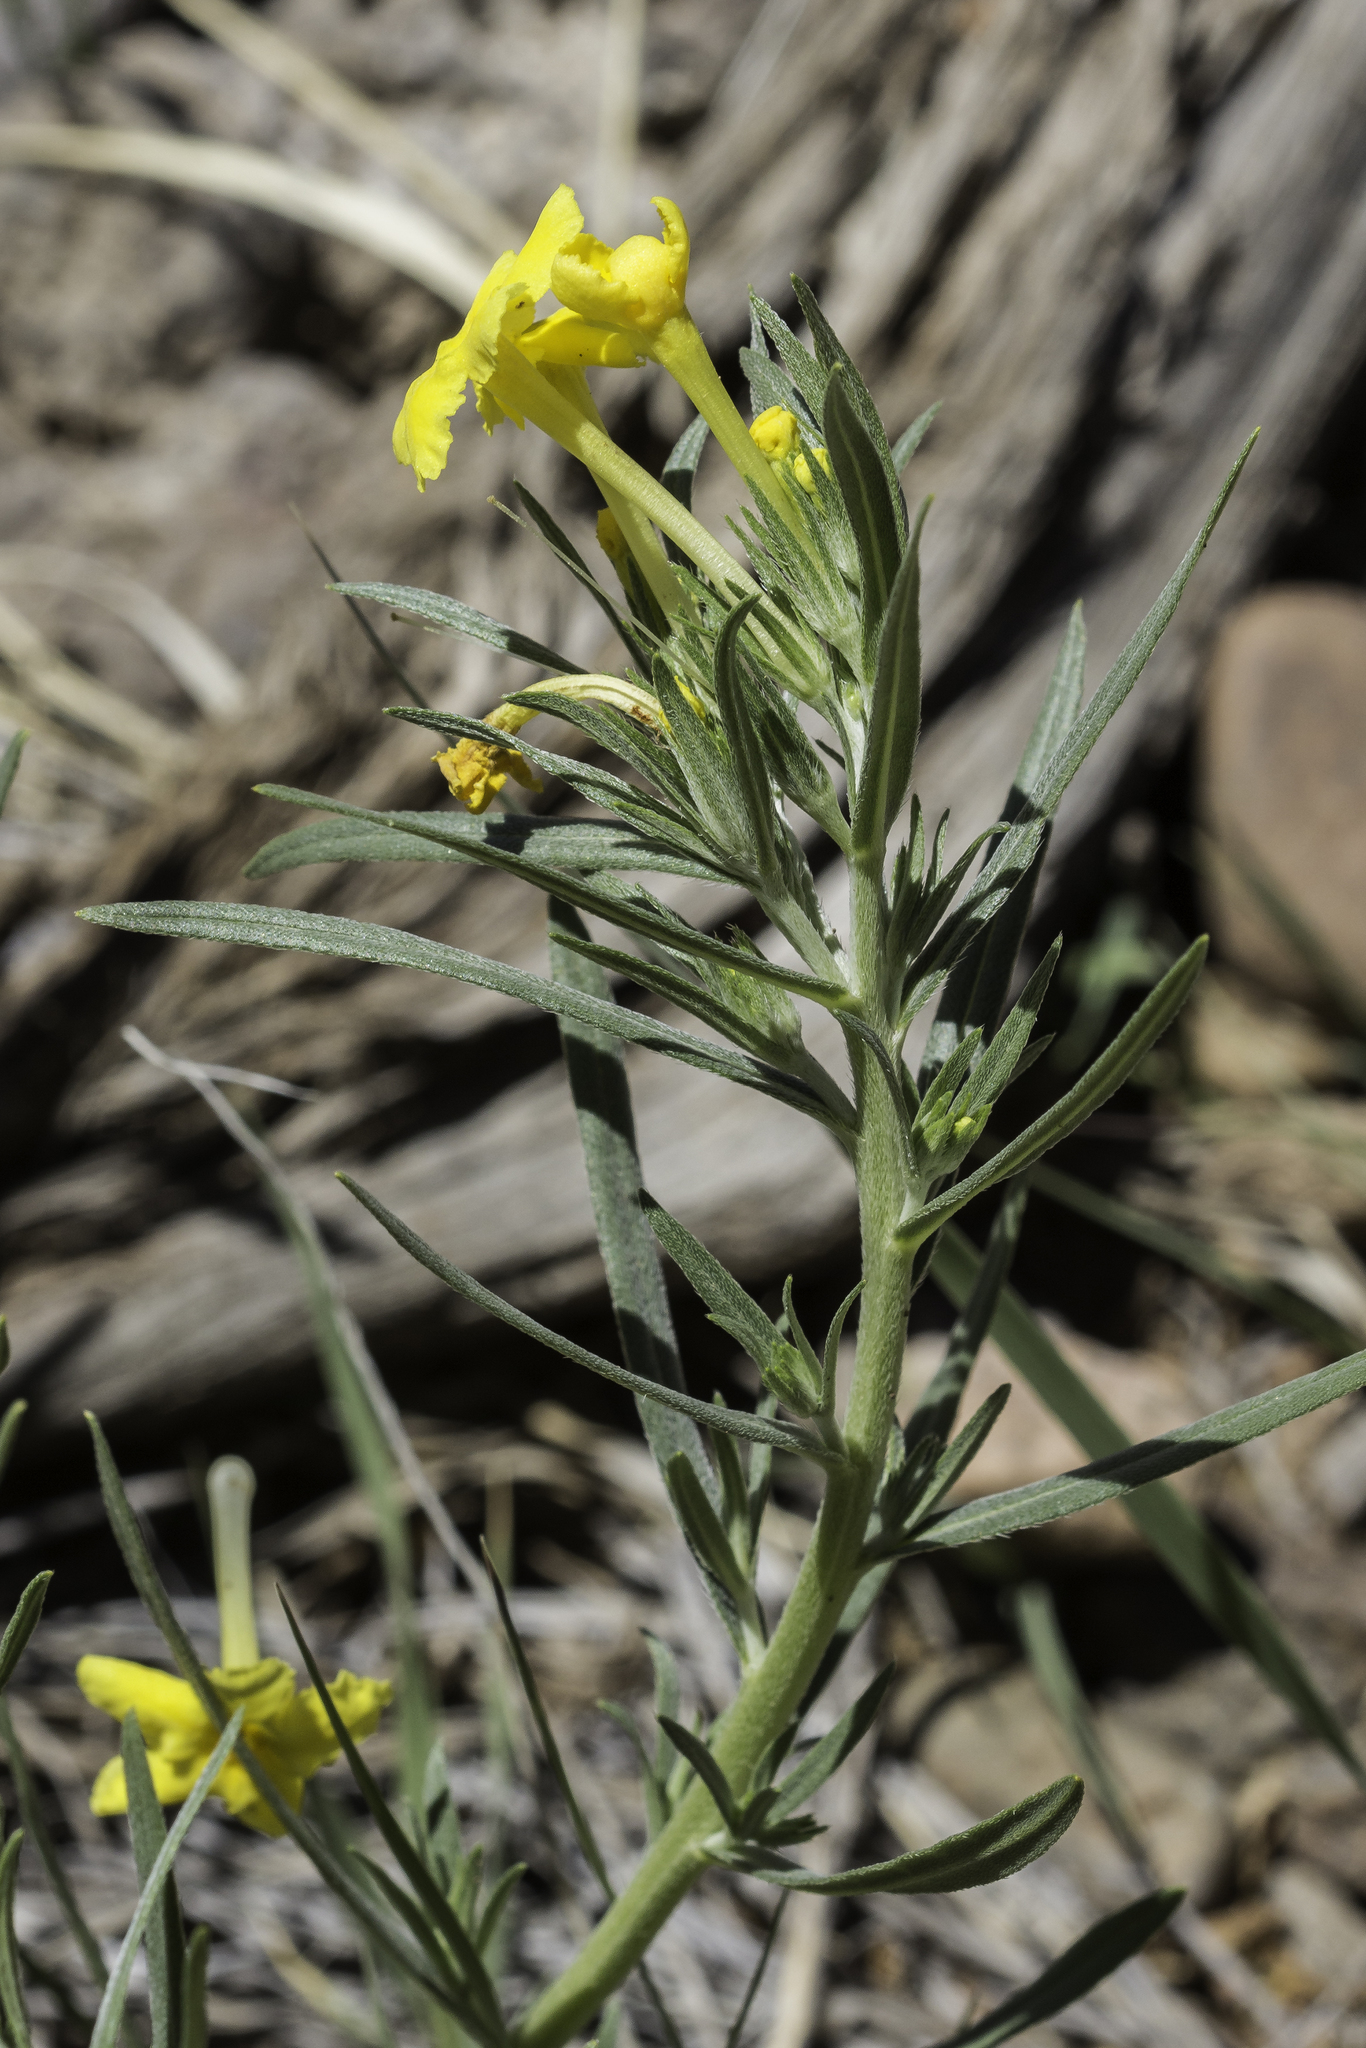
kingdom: Plantae
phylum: Tracheophyta
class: Magnoliopsida
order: Boraginales
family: Boraginaceae
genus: Lithospermum
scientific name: Lithospermum incisum
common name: Fringed gromwell
